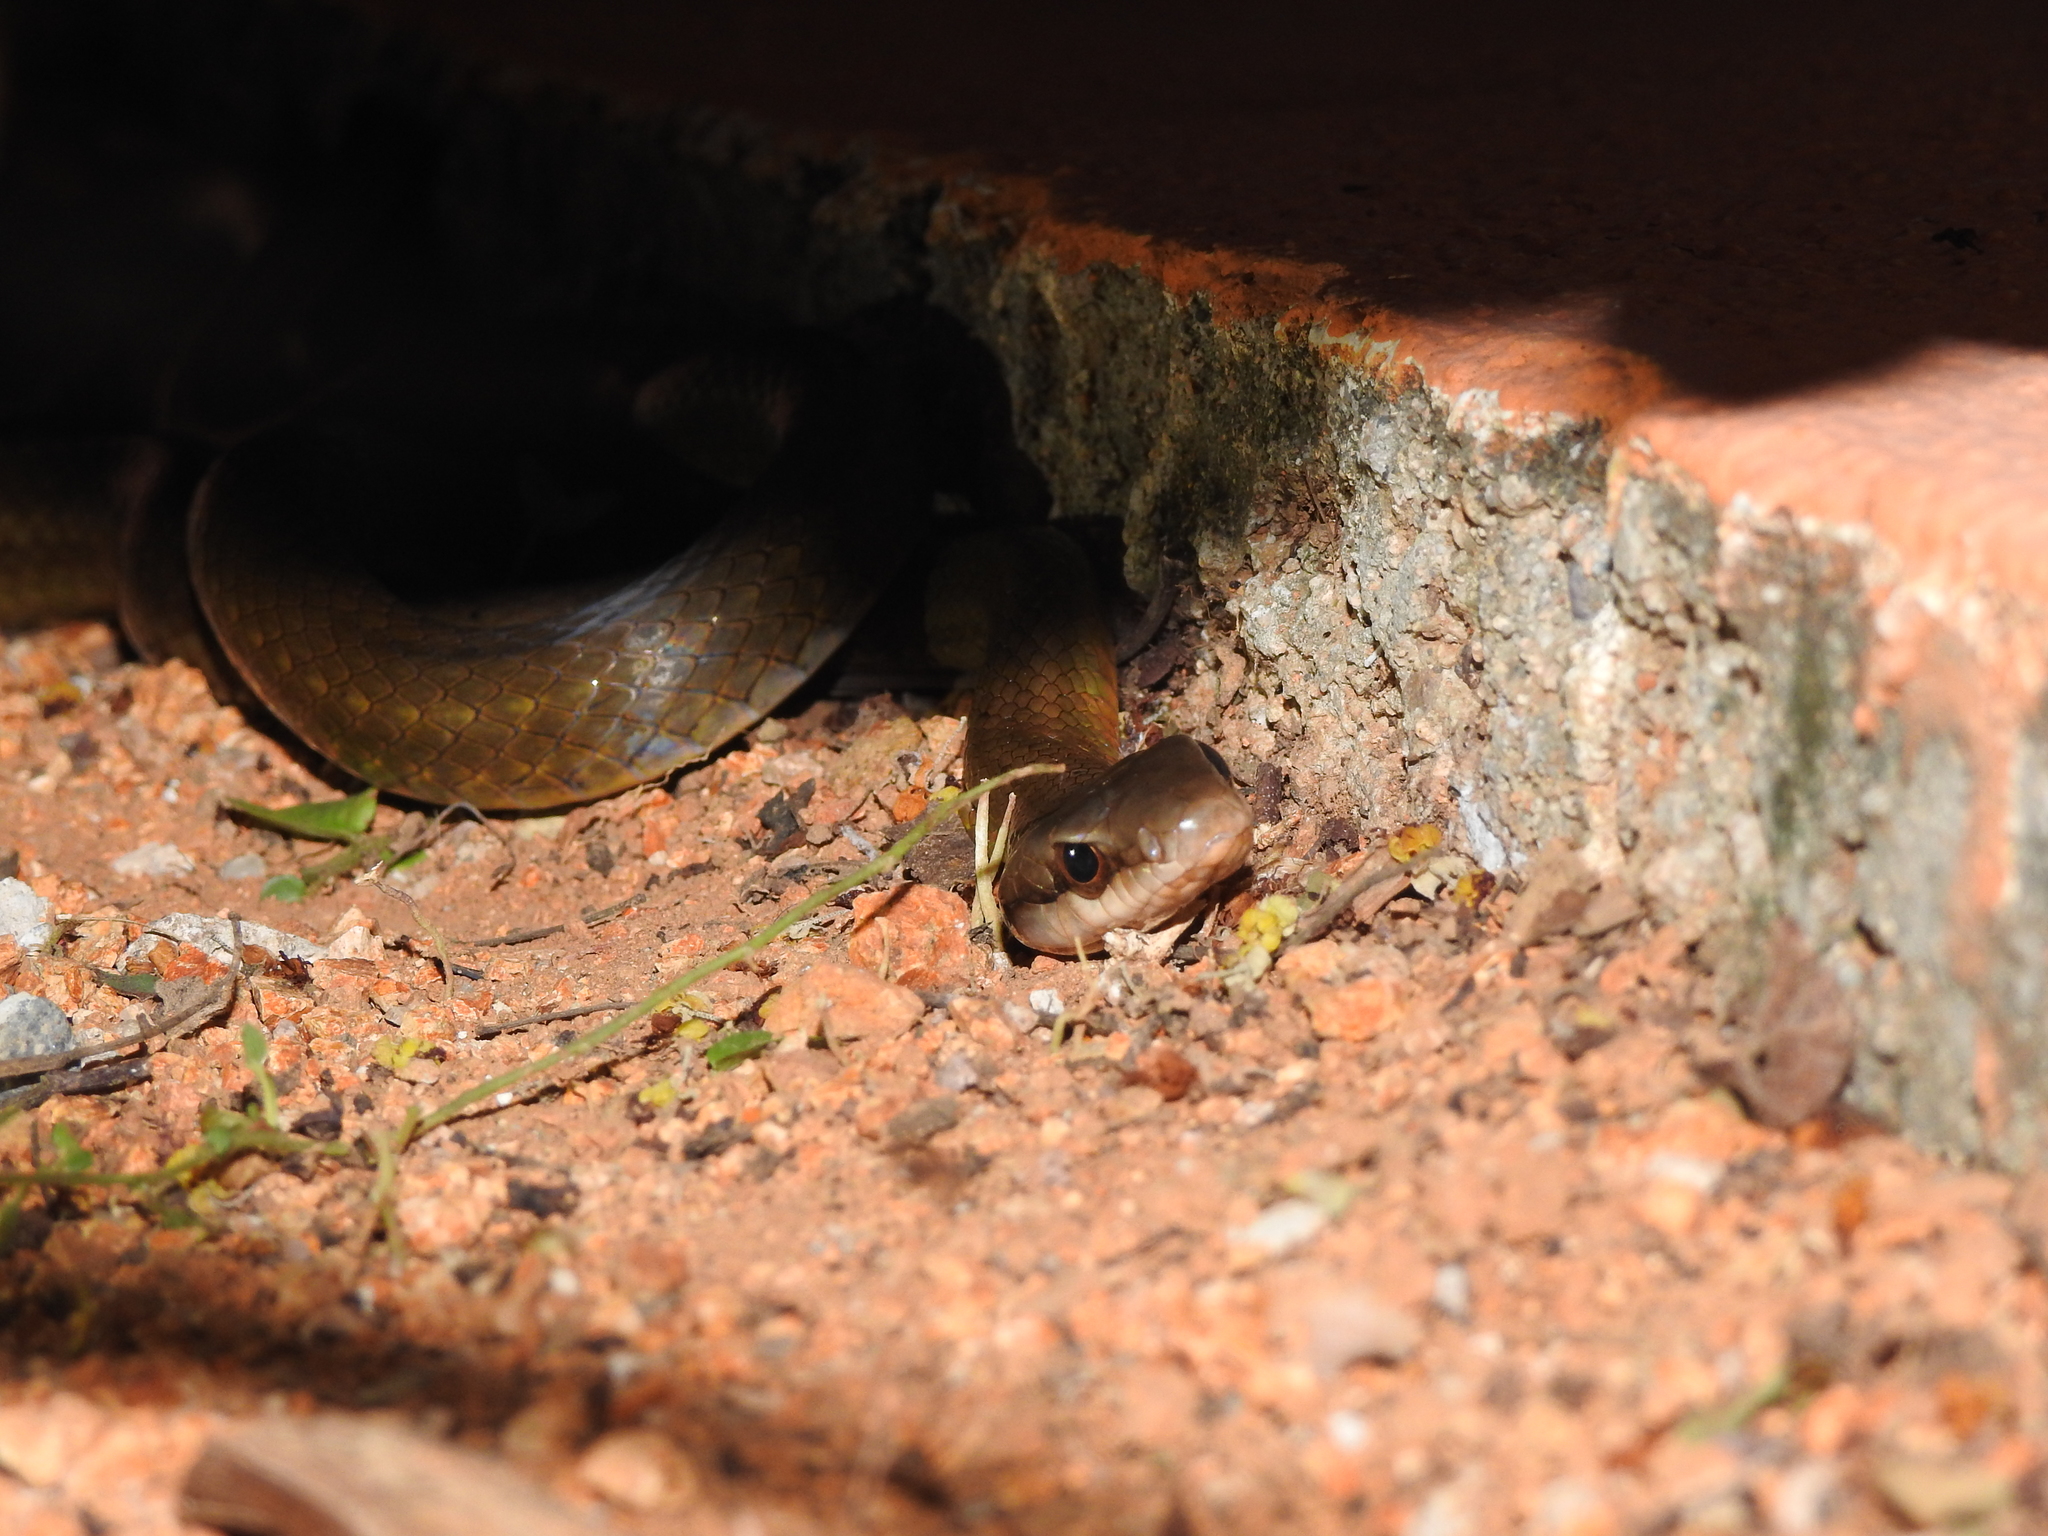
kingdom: Animalia
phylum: Chordata
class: Squamata
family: Colubridae
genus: Mastigodryas
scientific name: Mastigodryas melanolomus
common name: Salmon-bellied racer
